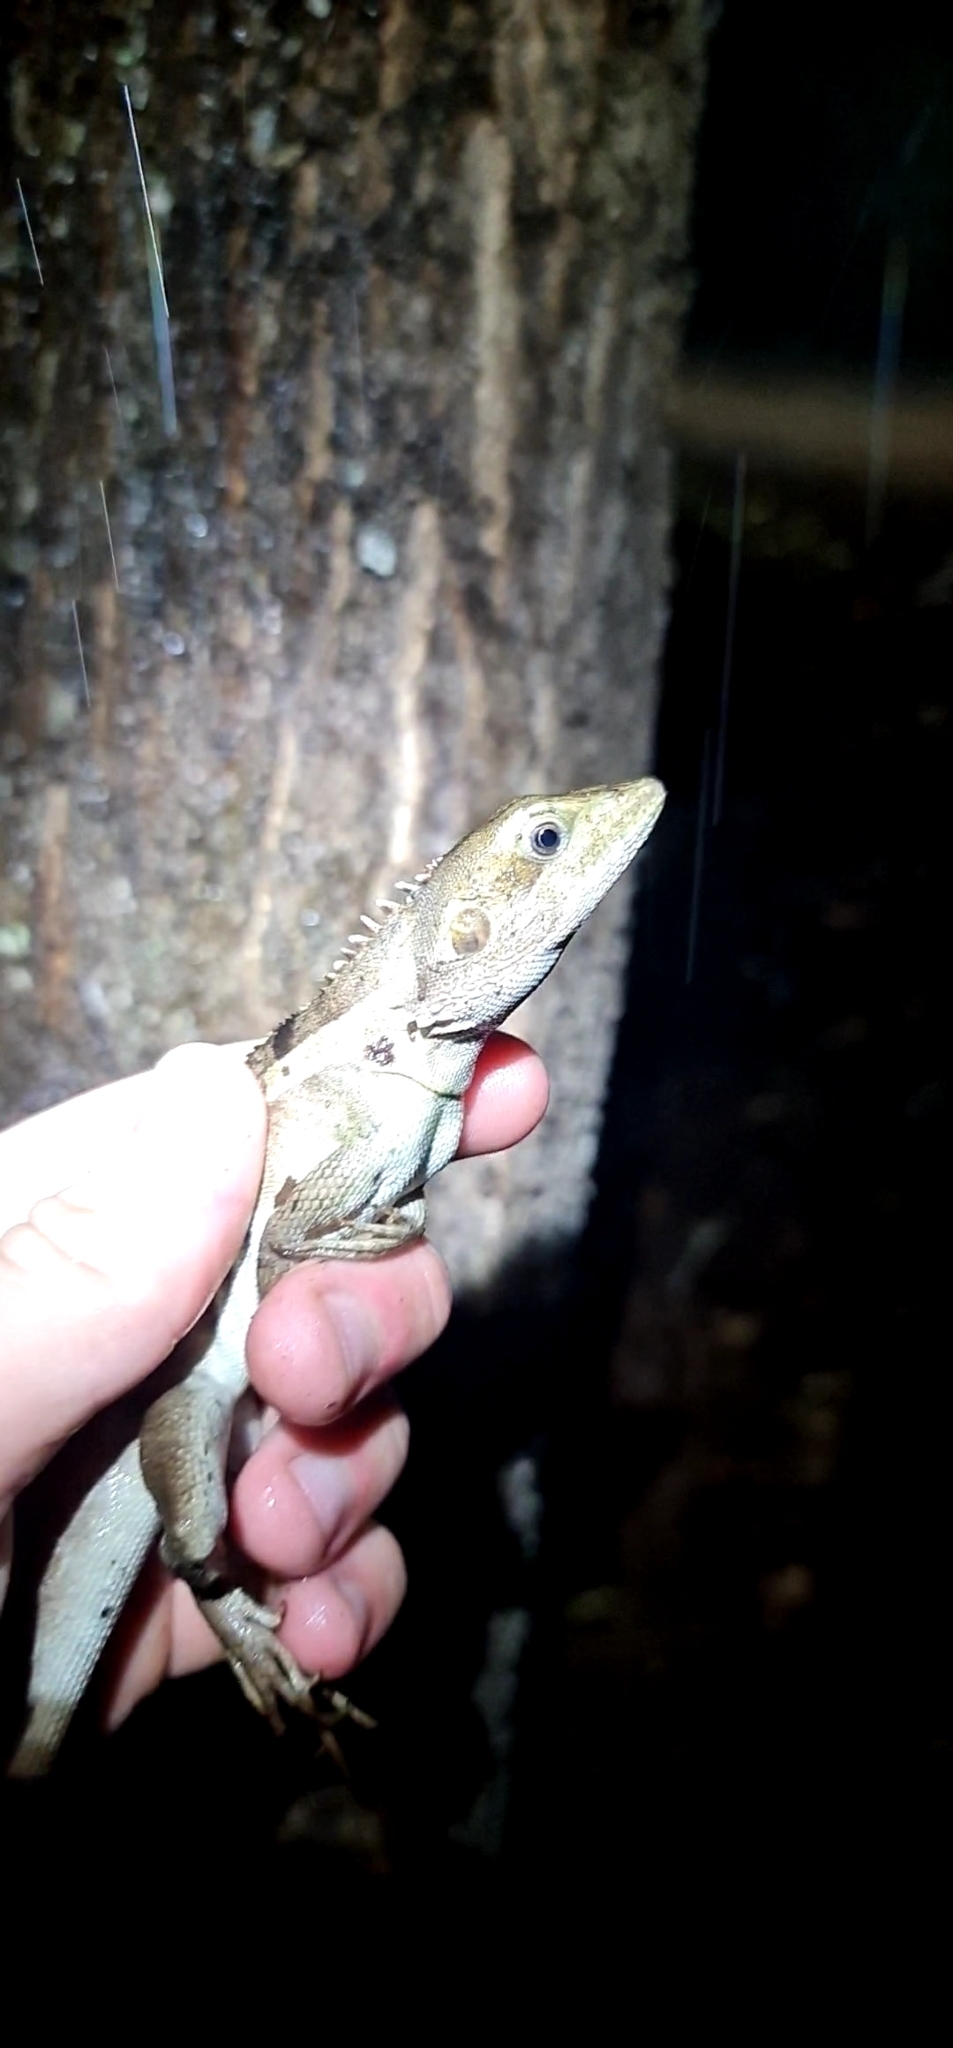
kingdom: Animalia
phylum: Chordata
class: Squamata
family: Agamidae
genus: Tropicagama
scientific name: Tropicagama temporalis
